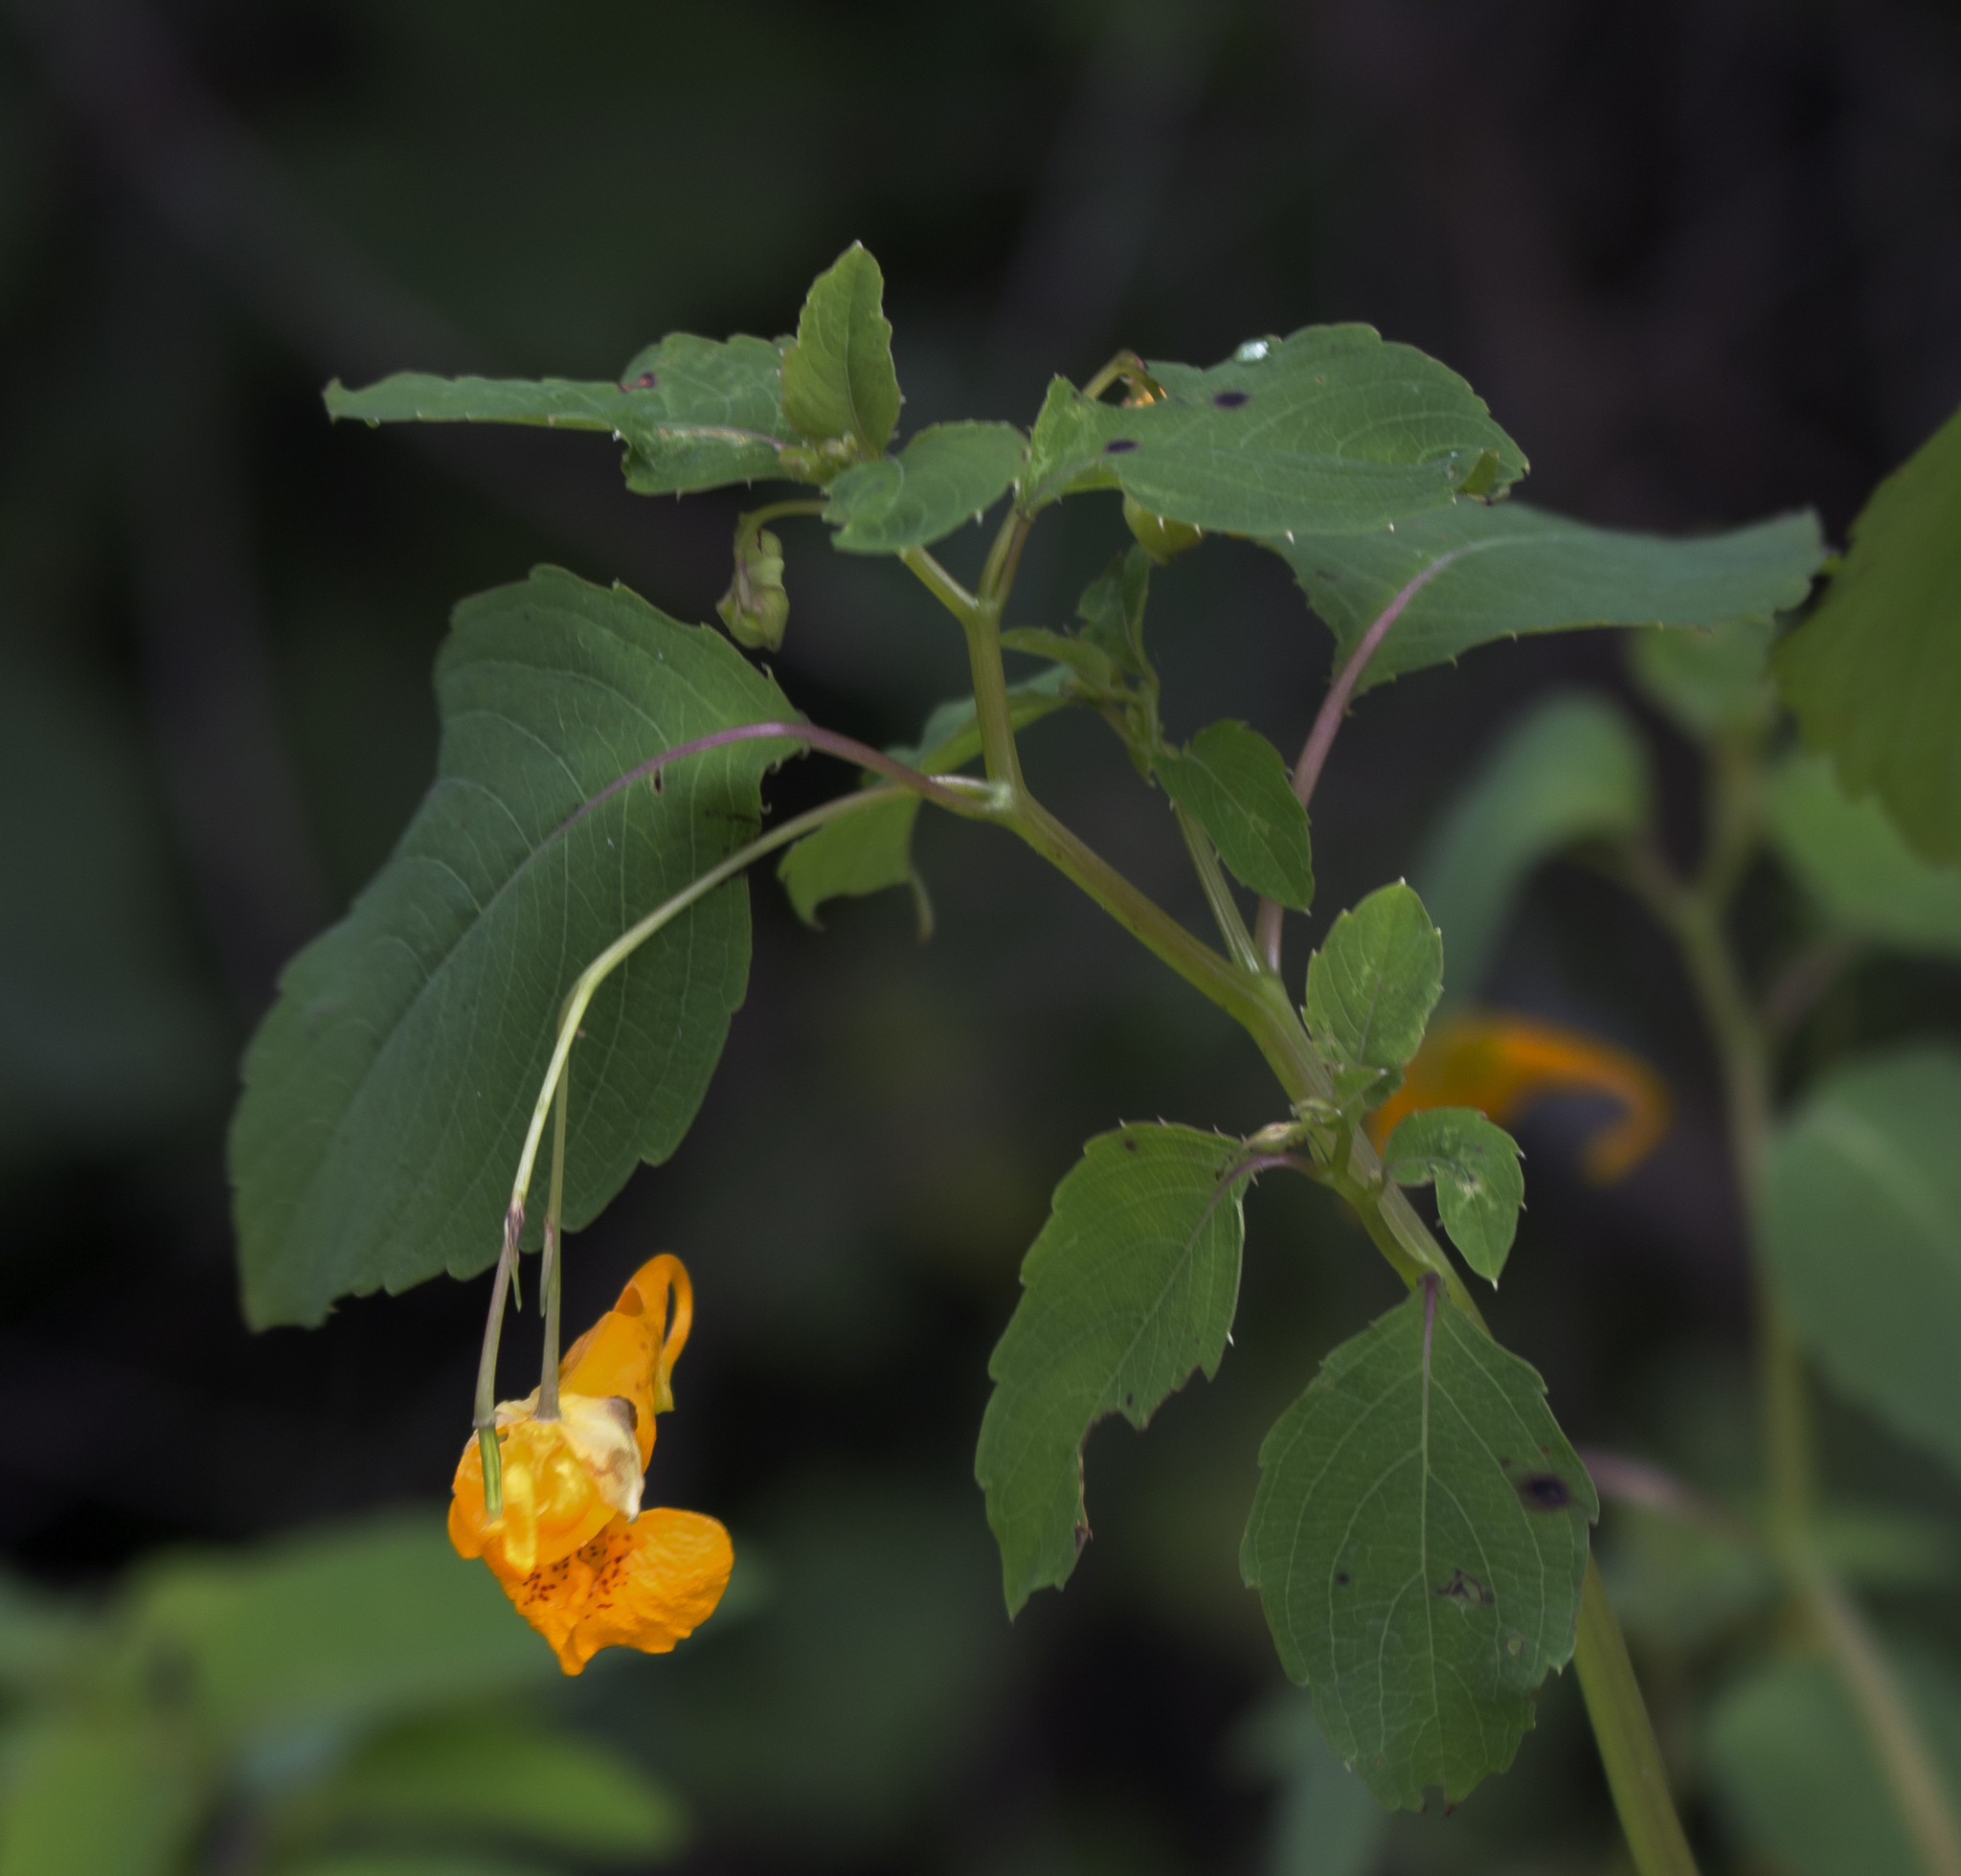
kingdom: Plantae
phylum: Tracheophyta
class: Magnoliopsida
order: Ericales
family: Balsaminaceae
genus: Impatiens
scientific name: Impatiens capensis
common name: Orange balsam
